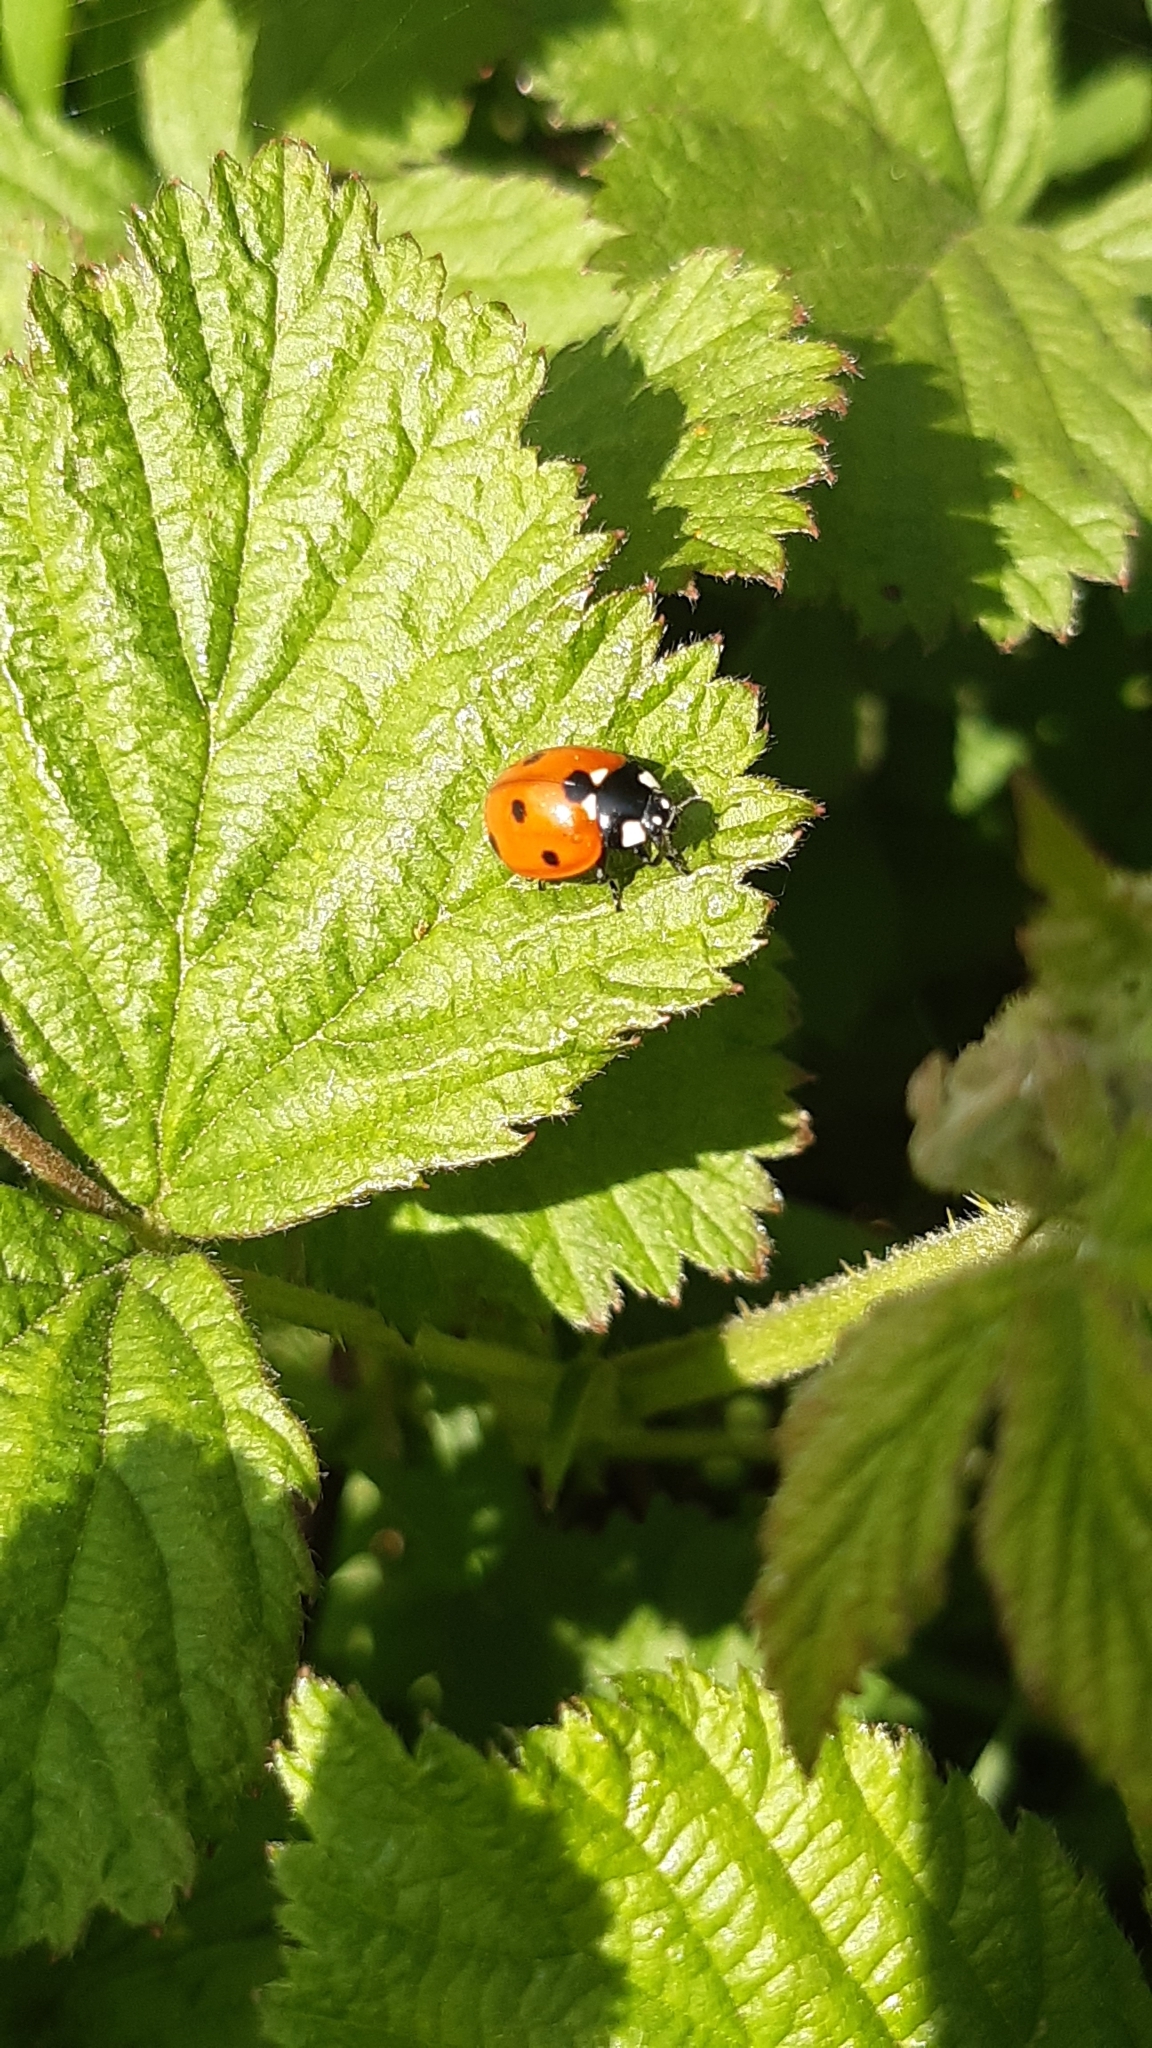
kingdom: Animalia
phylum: Arthropoda
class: Insecta
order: Coleoptera
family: Coccinellidae
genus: Coccinella
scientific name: Coccinella septempunctata
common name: Sevenspotted lady beetle
